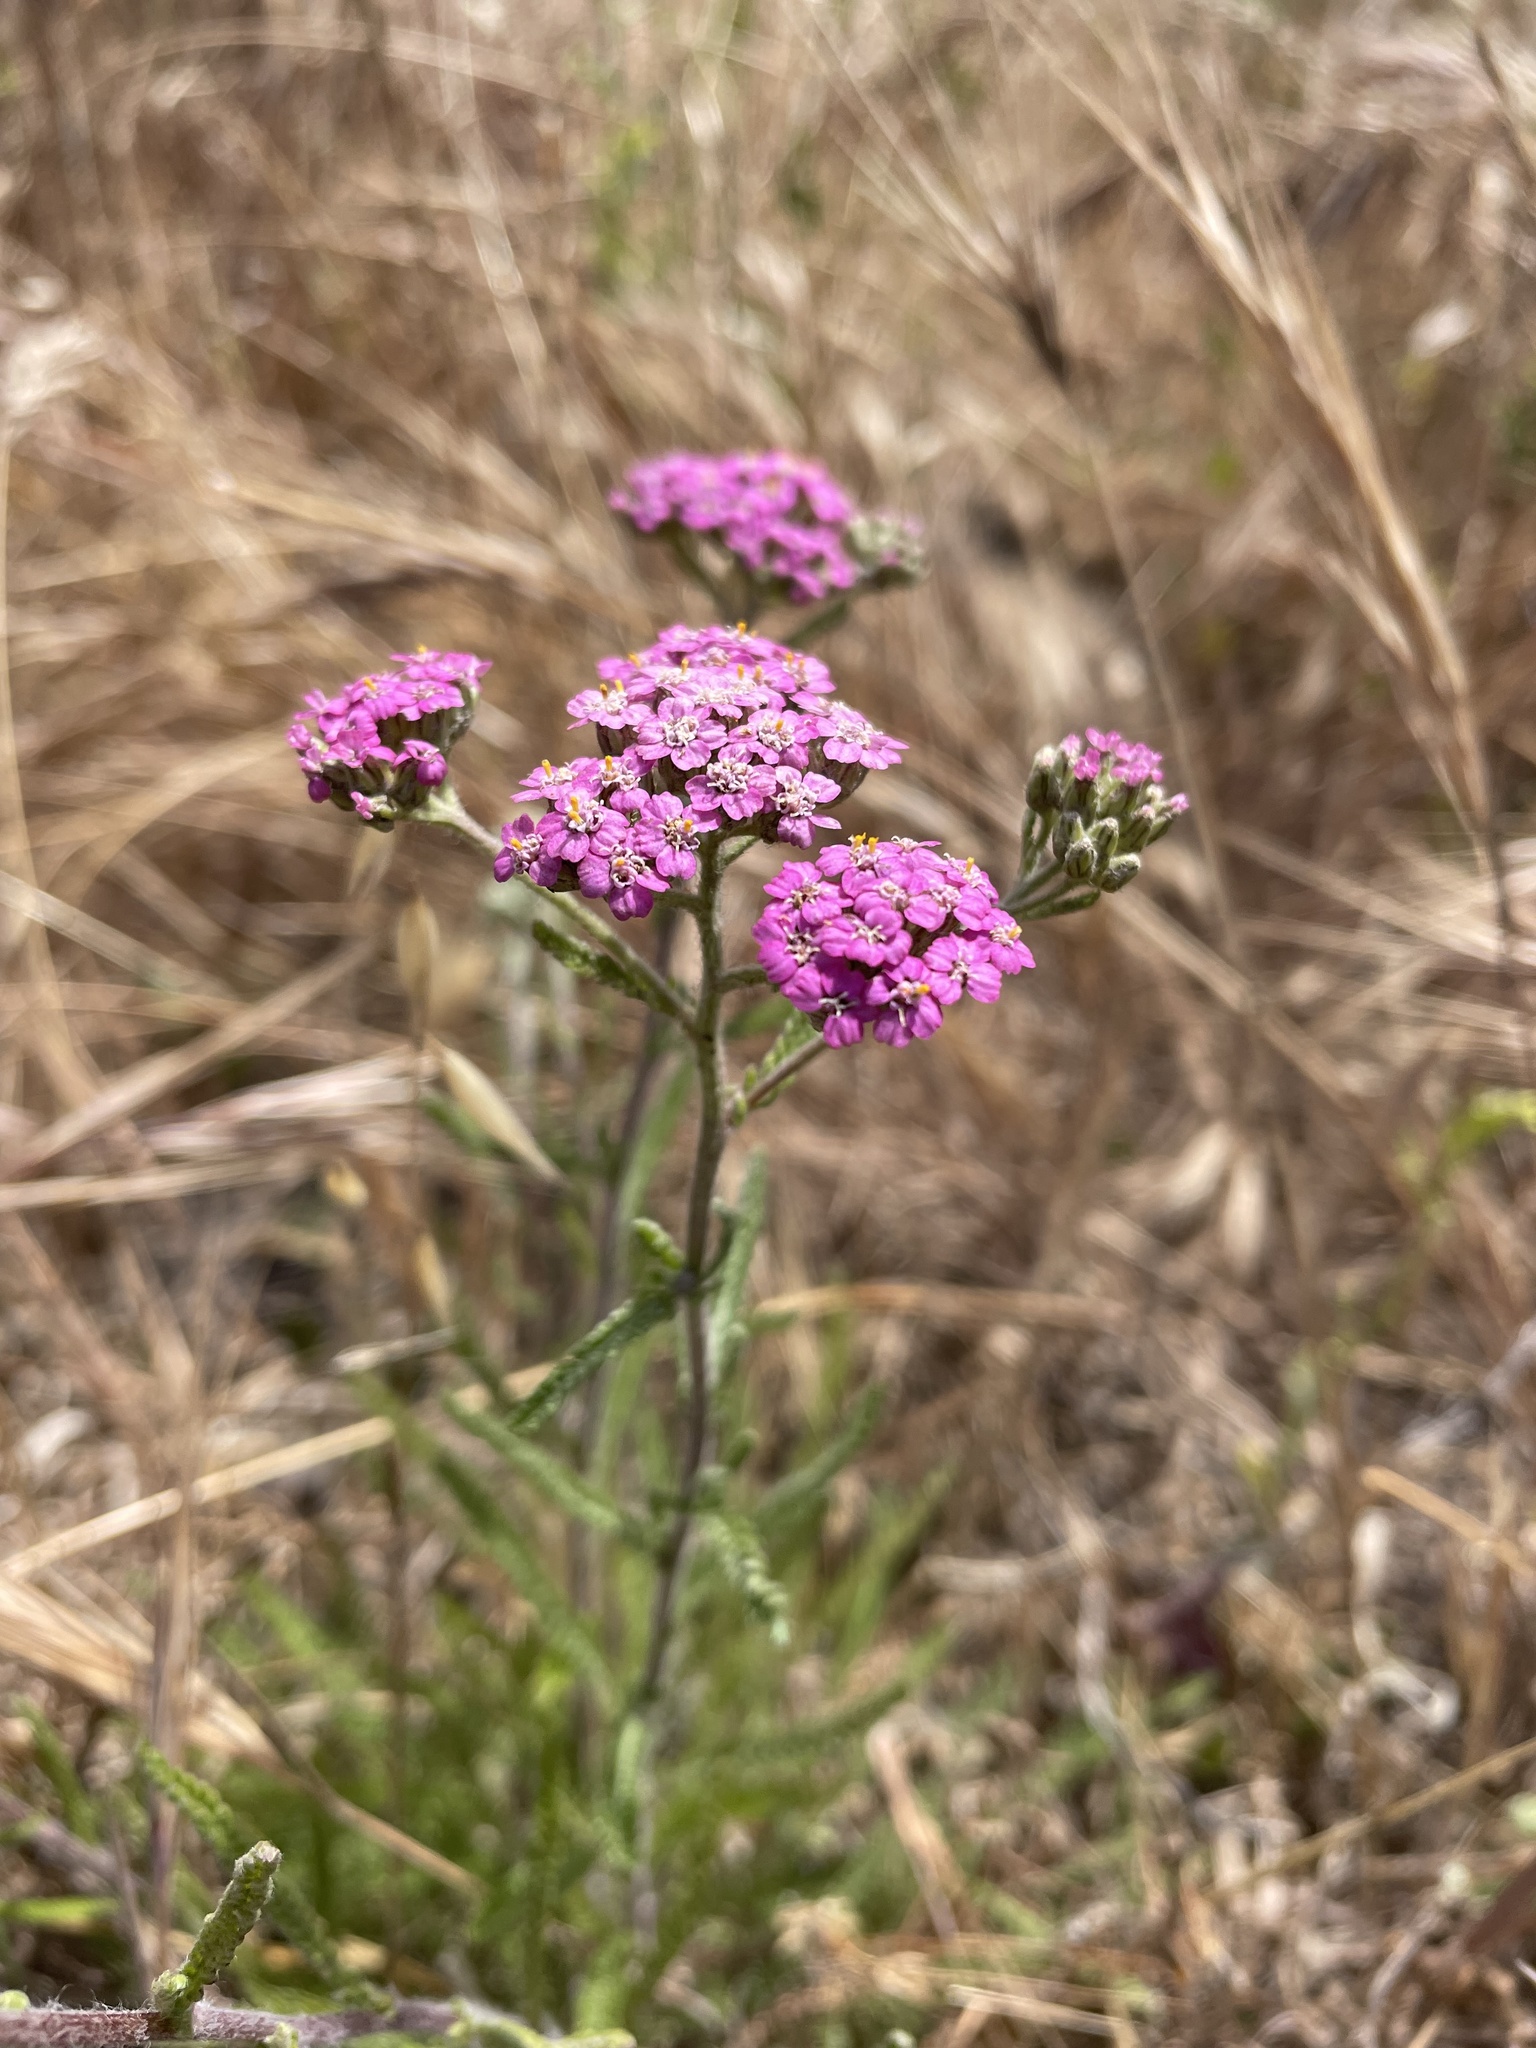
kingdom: Plantae
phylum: Tracheophyta
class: Magnoliopsida
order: Asterales
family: Asteraceae
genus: Achillea
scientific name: Achillea millefolium
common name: Yarrow
